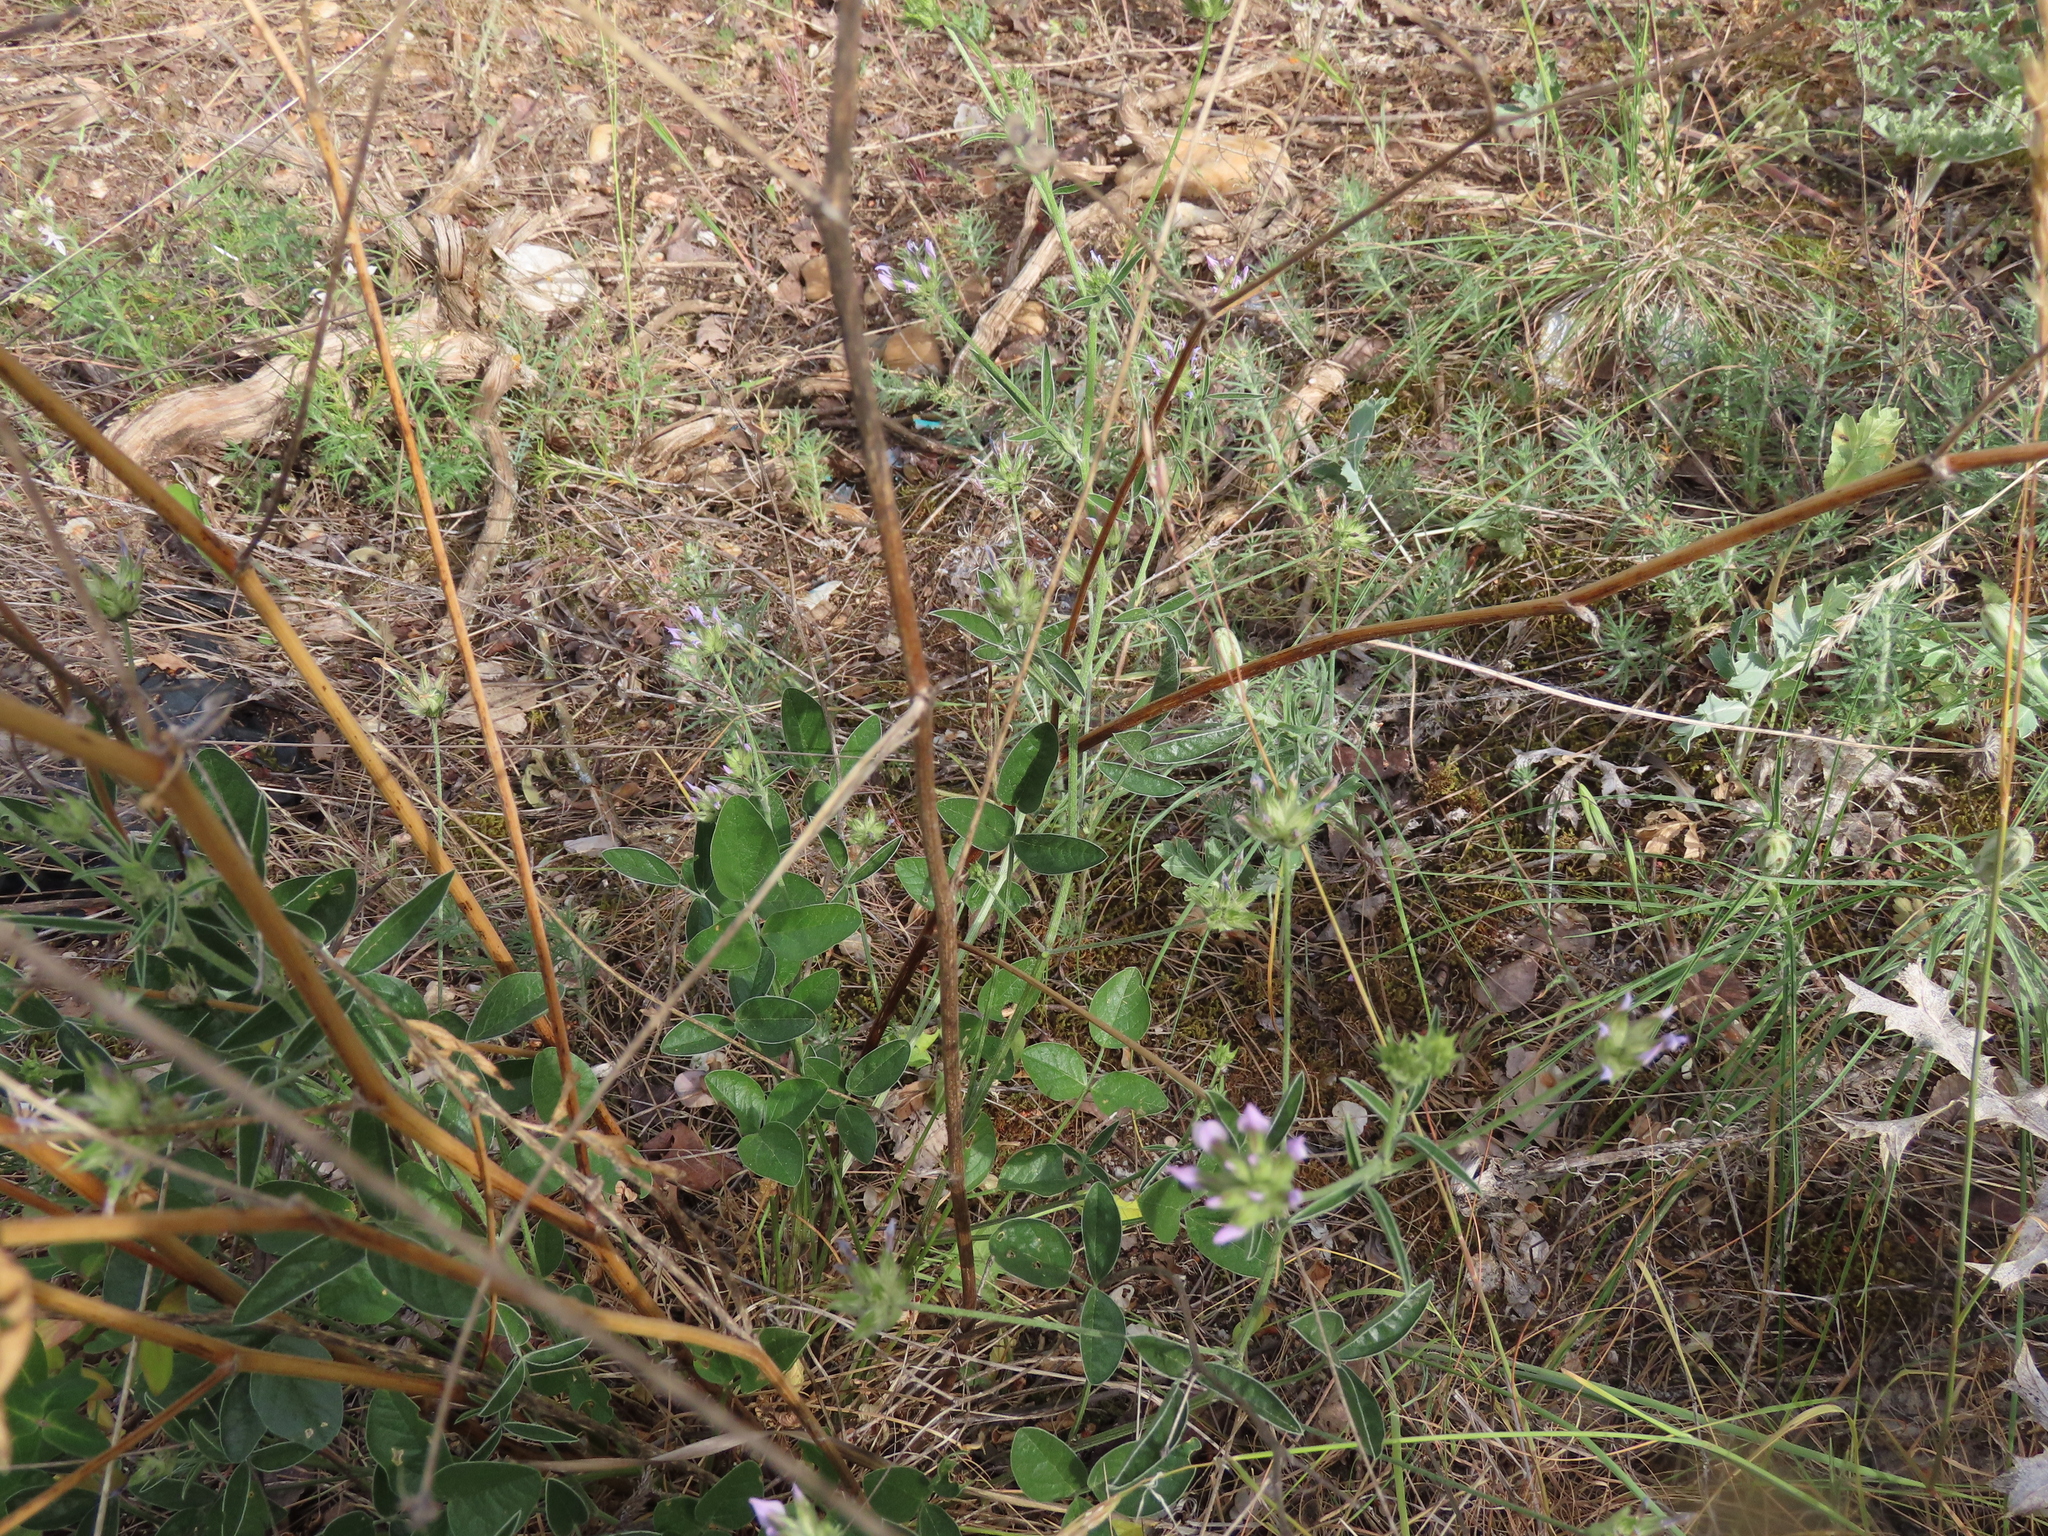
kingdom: Plantae
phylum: Tracheophyta
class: Magnoliopsida
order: Fabales
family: Fabaceae
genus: Bituminaria
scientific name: Bituminaria bituminosa
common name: Arabian pea
